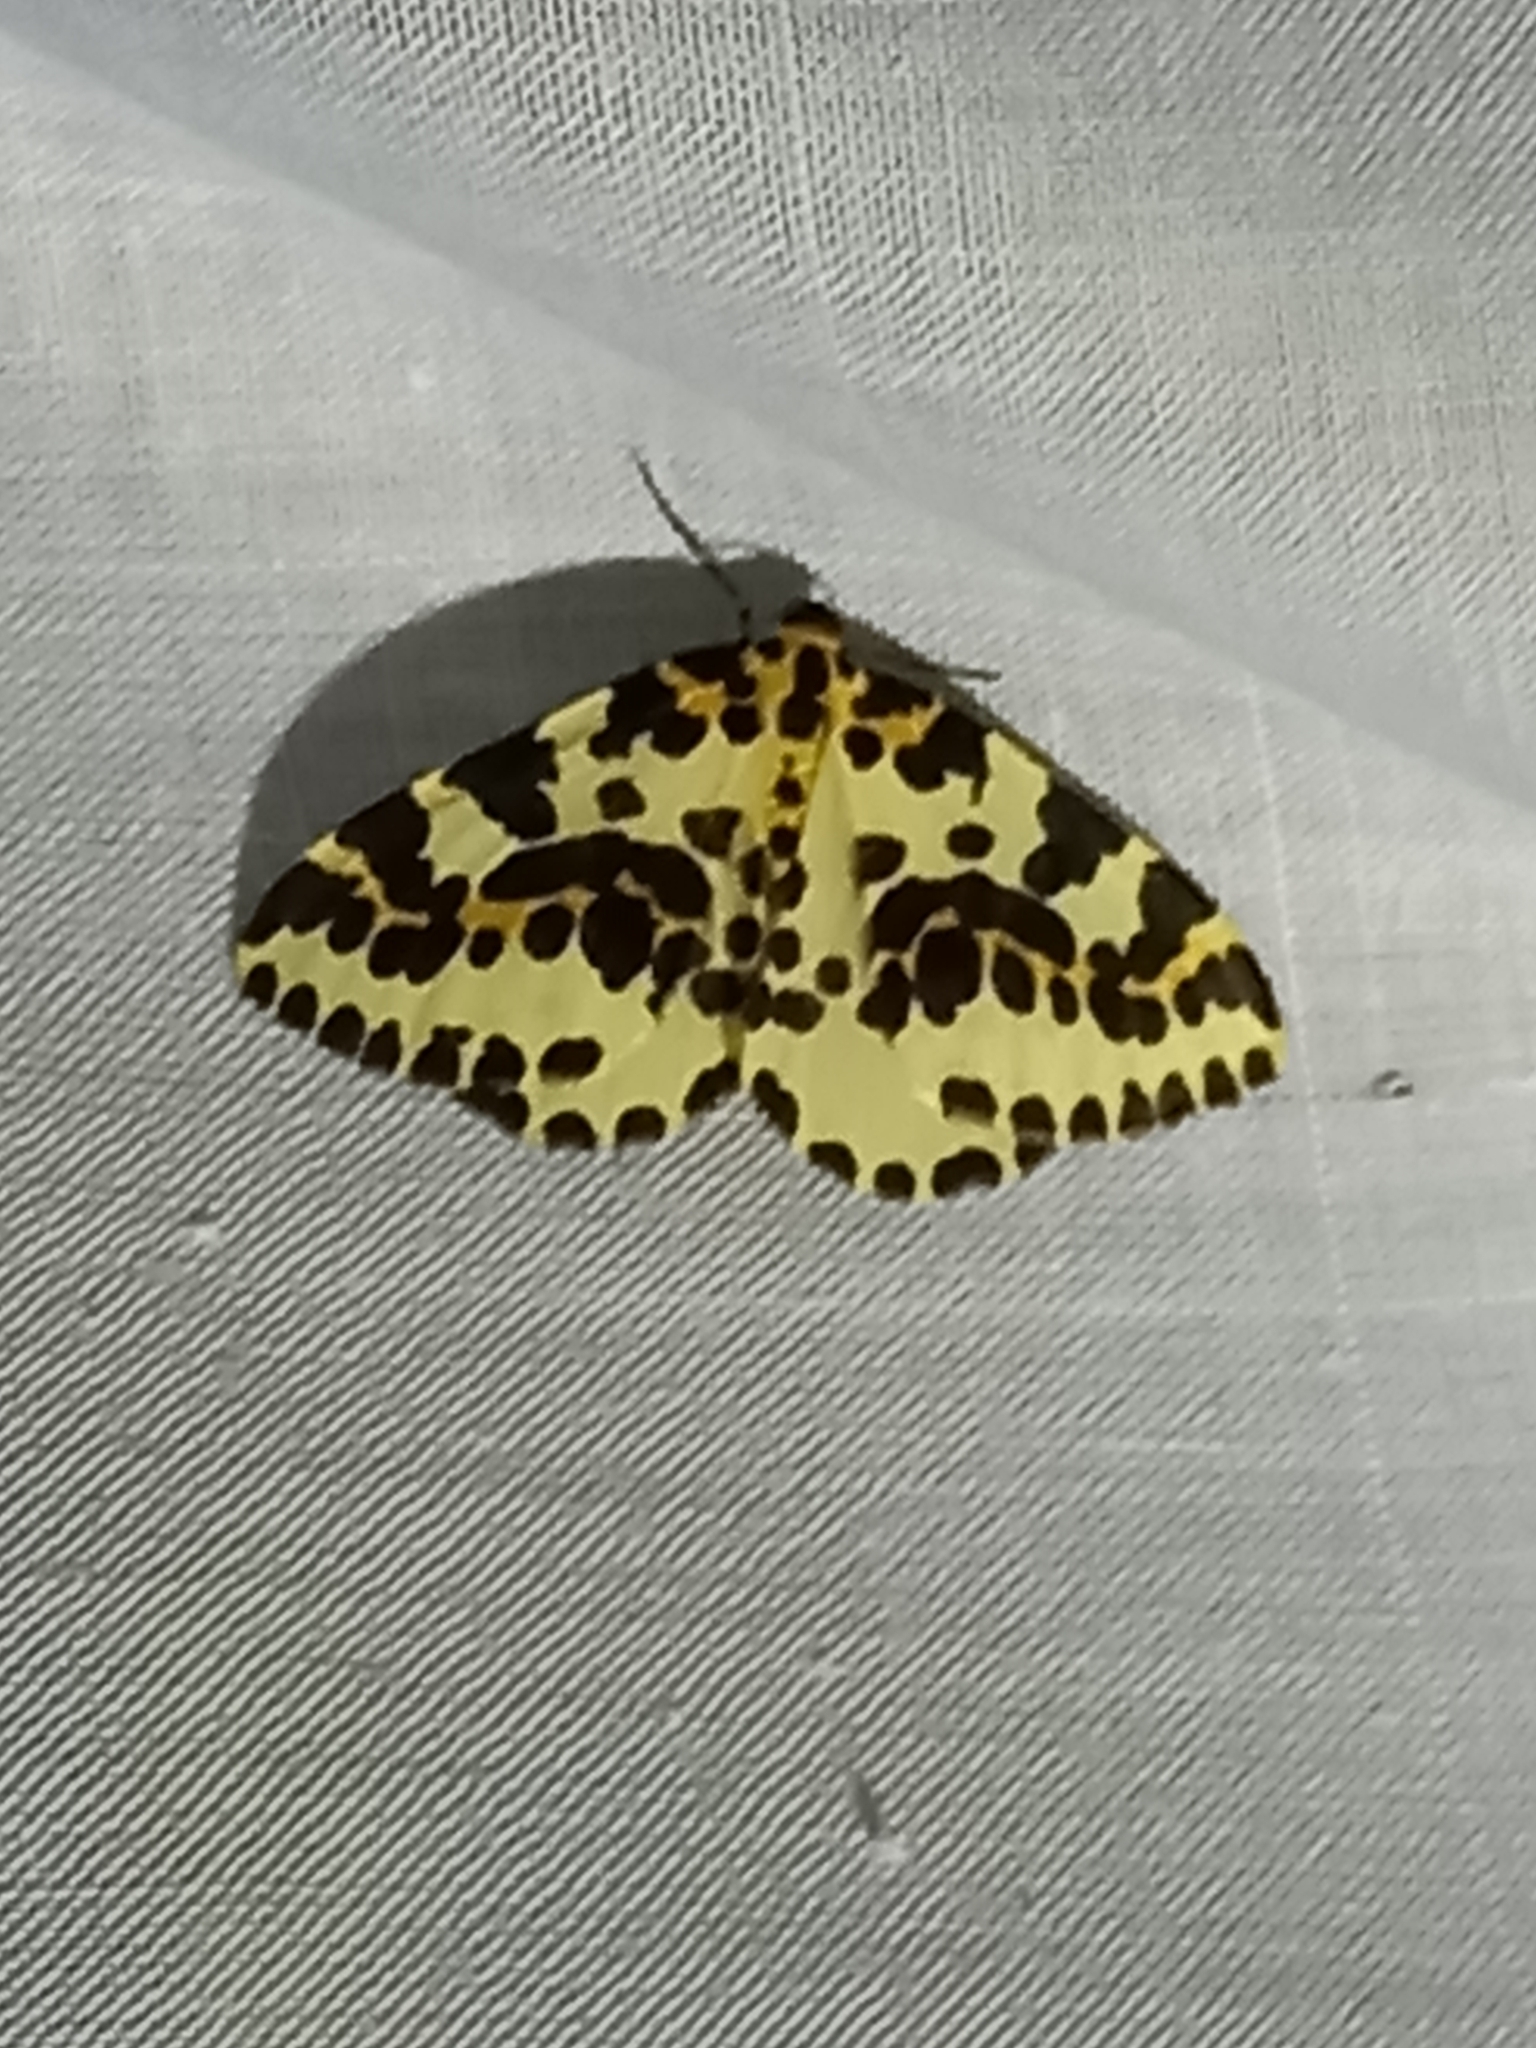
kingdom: Animalia
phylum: Arthropoda
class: Insecta
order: Lepidoptera
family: Geometridae
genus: Abraxas
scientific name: Abraxas grossulariata
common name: Magpie
